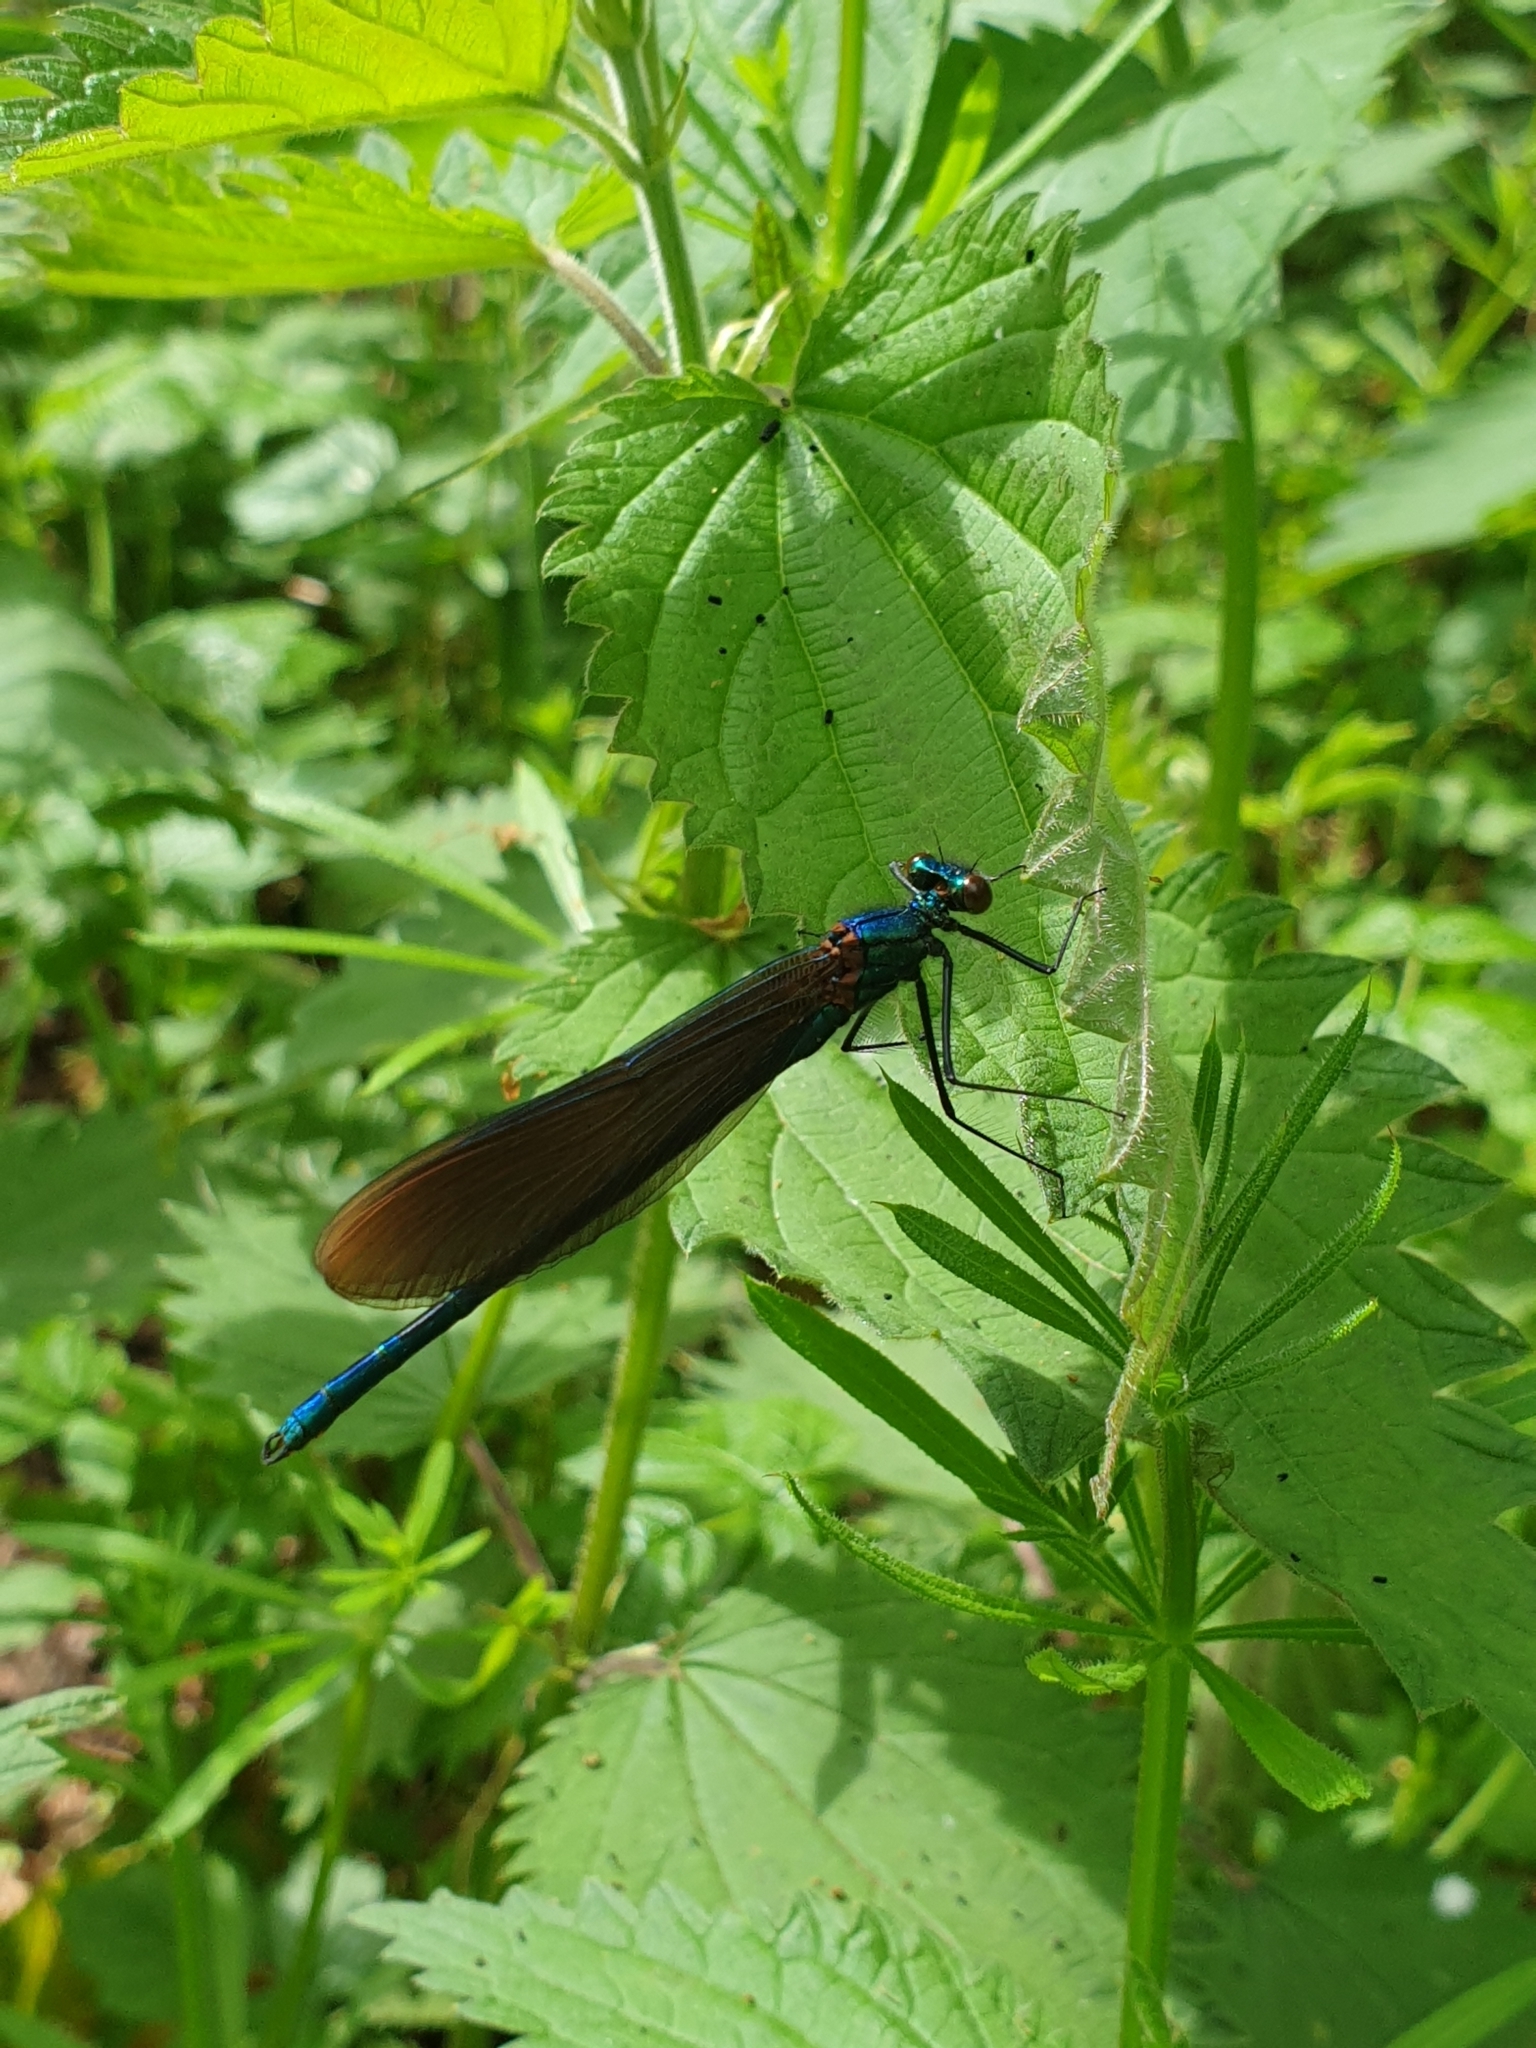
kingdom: Animalia
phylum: Arthropoda
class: Insecta
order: Odonata
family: Calopterygidae
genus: Calopteryx
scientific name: Calopteryx virgo
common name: Beautiful demoiselle
